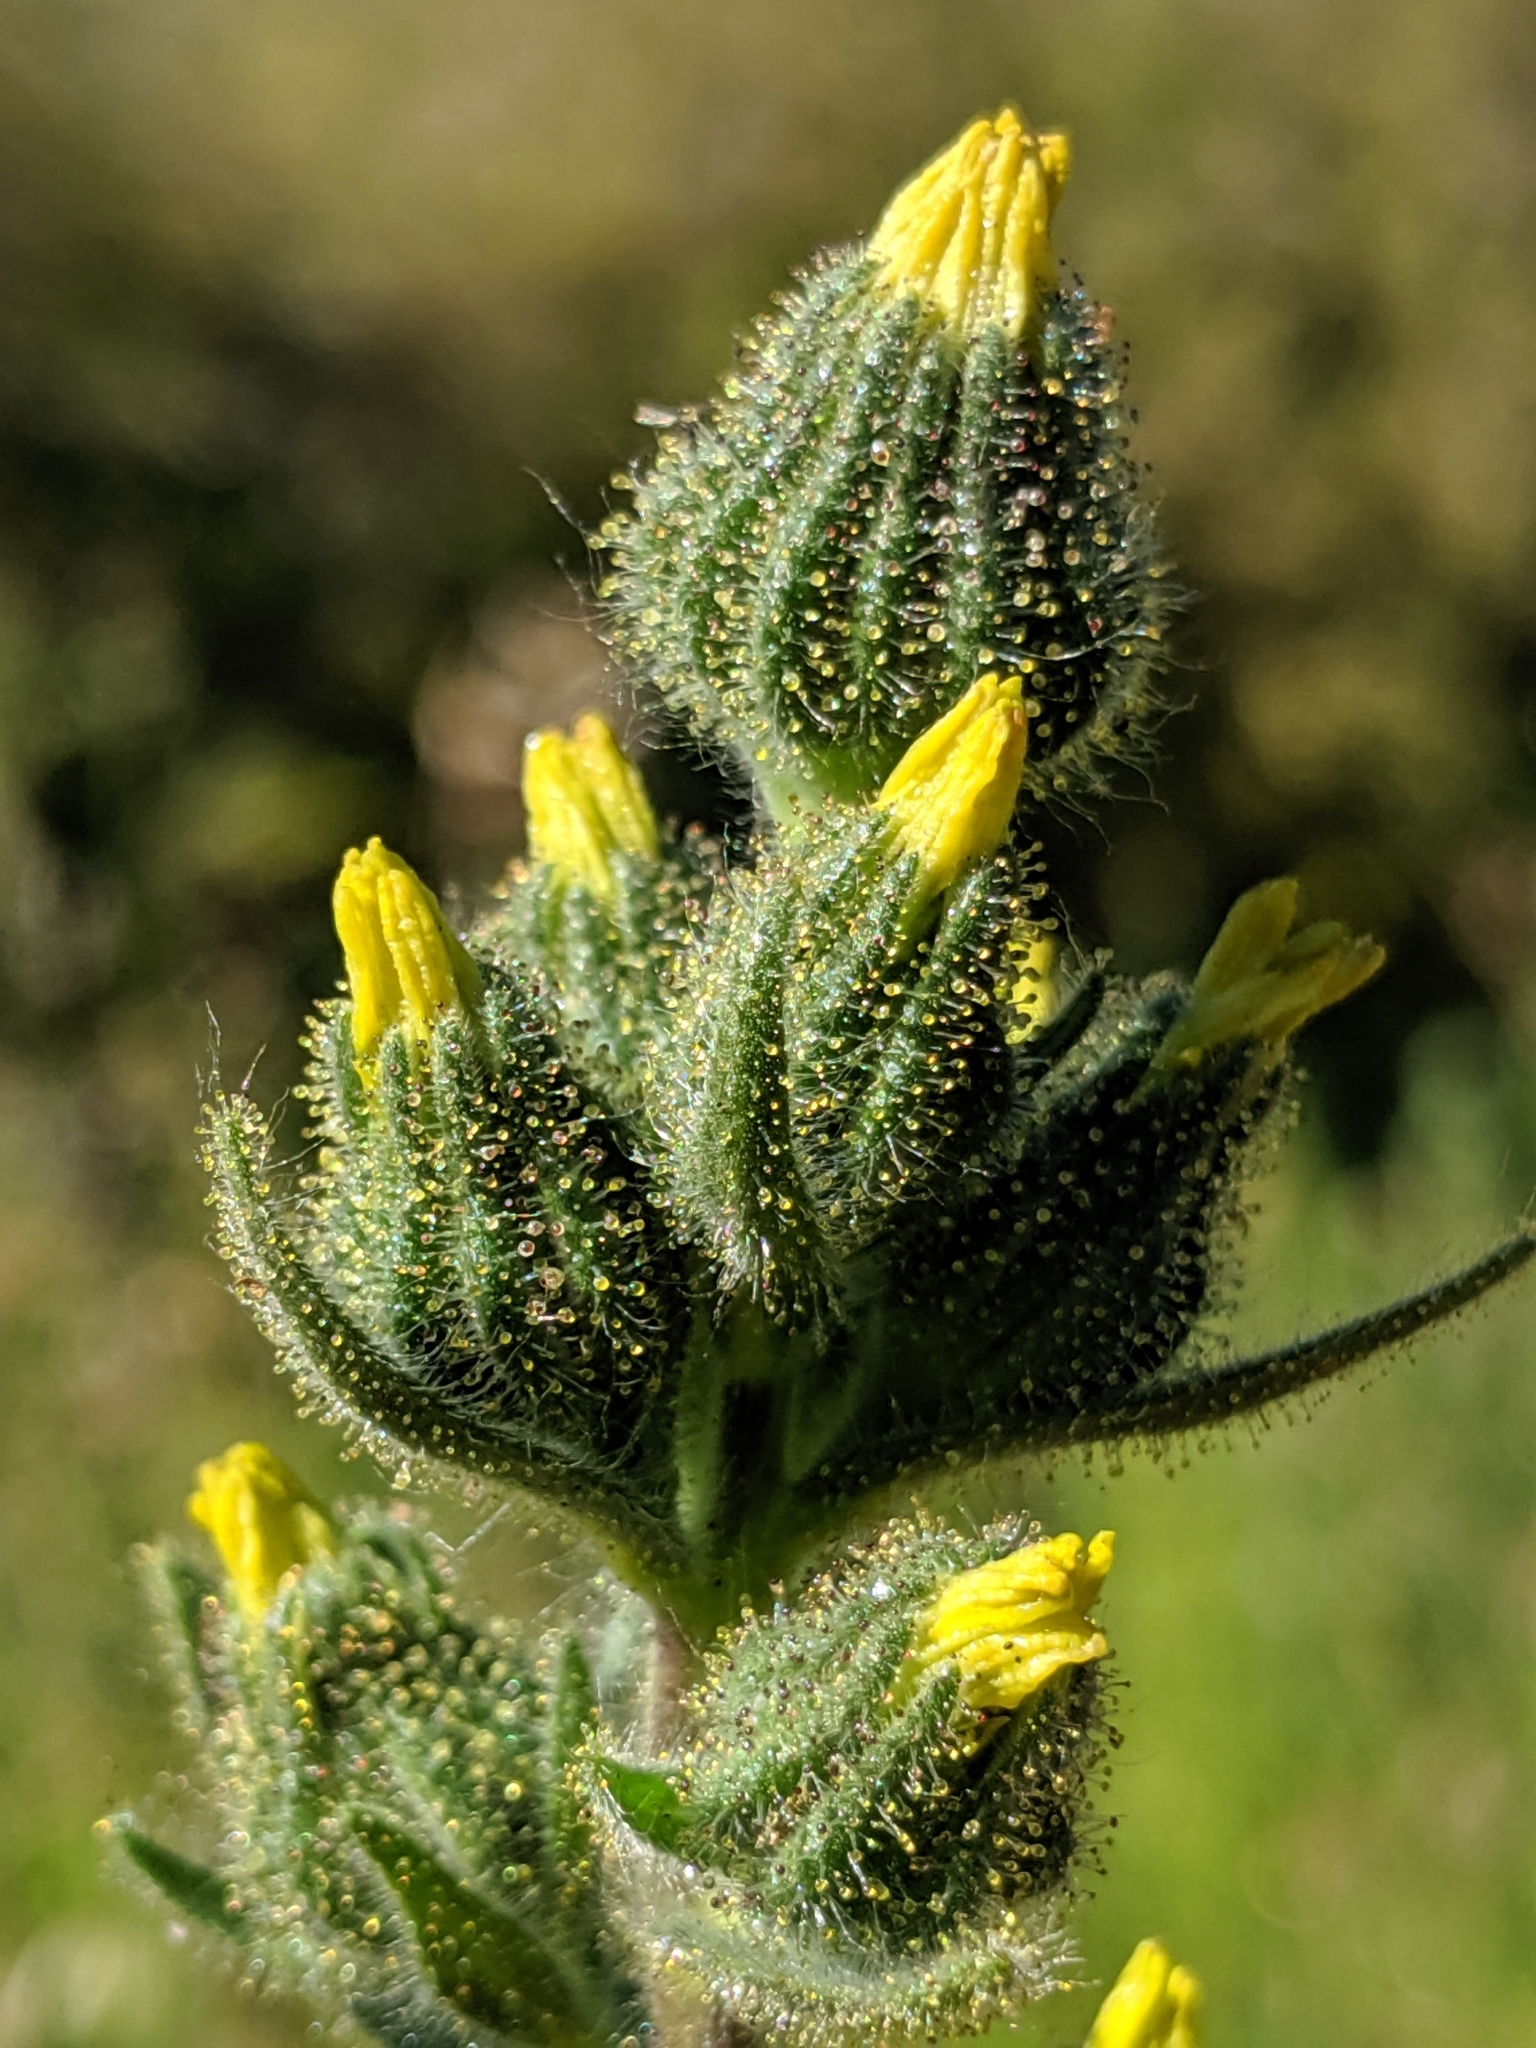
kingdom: Plantae
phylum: Tracheophyta
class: Magnoliopsida
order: Asterales
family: Asteraceae
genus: Madia
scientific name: Madia sativa
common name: Coast tarweed
